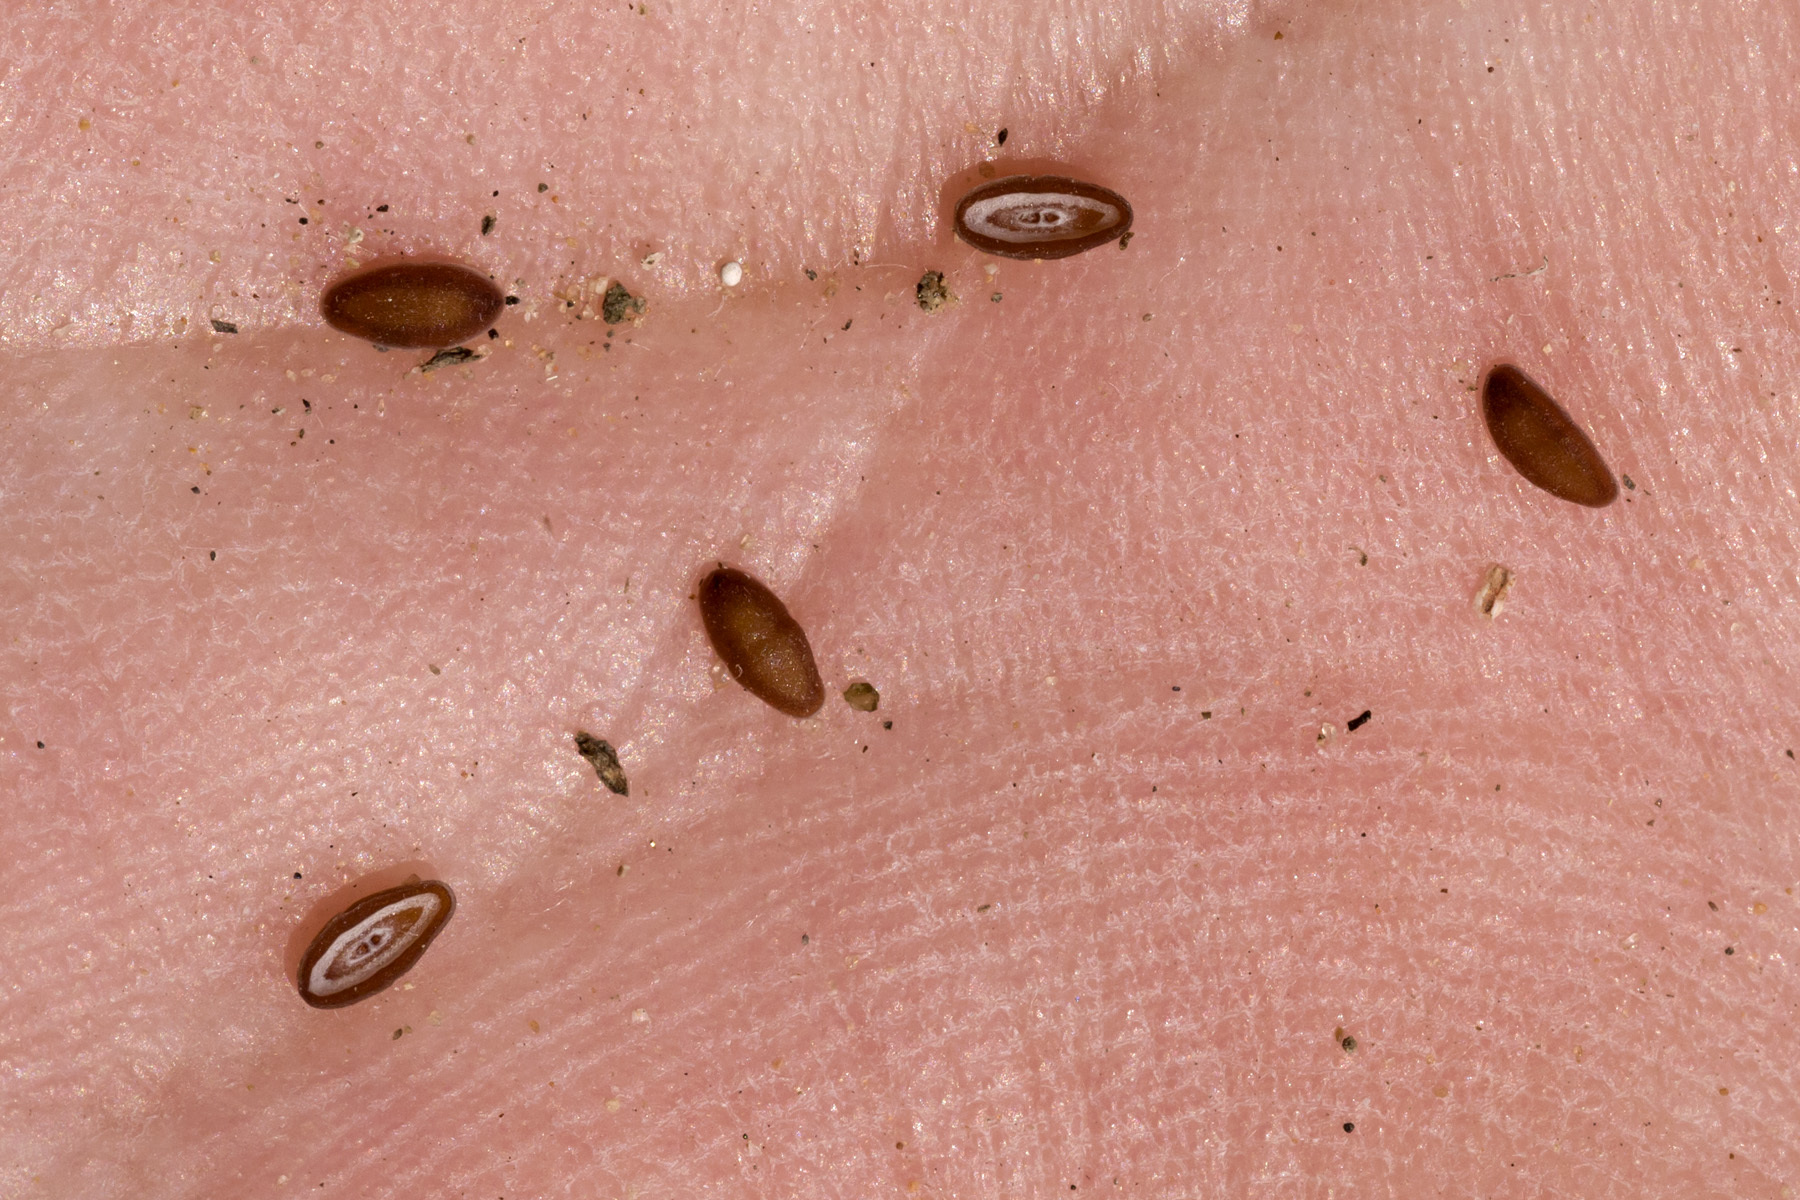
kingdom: Plantae
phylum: Tracheophyta
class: Magnoliopsida
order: Lamiales
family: Plantaginaceae
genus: Plantago
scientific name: Plantago patagonica
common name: Patagonia indian-wheat
